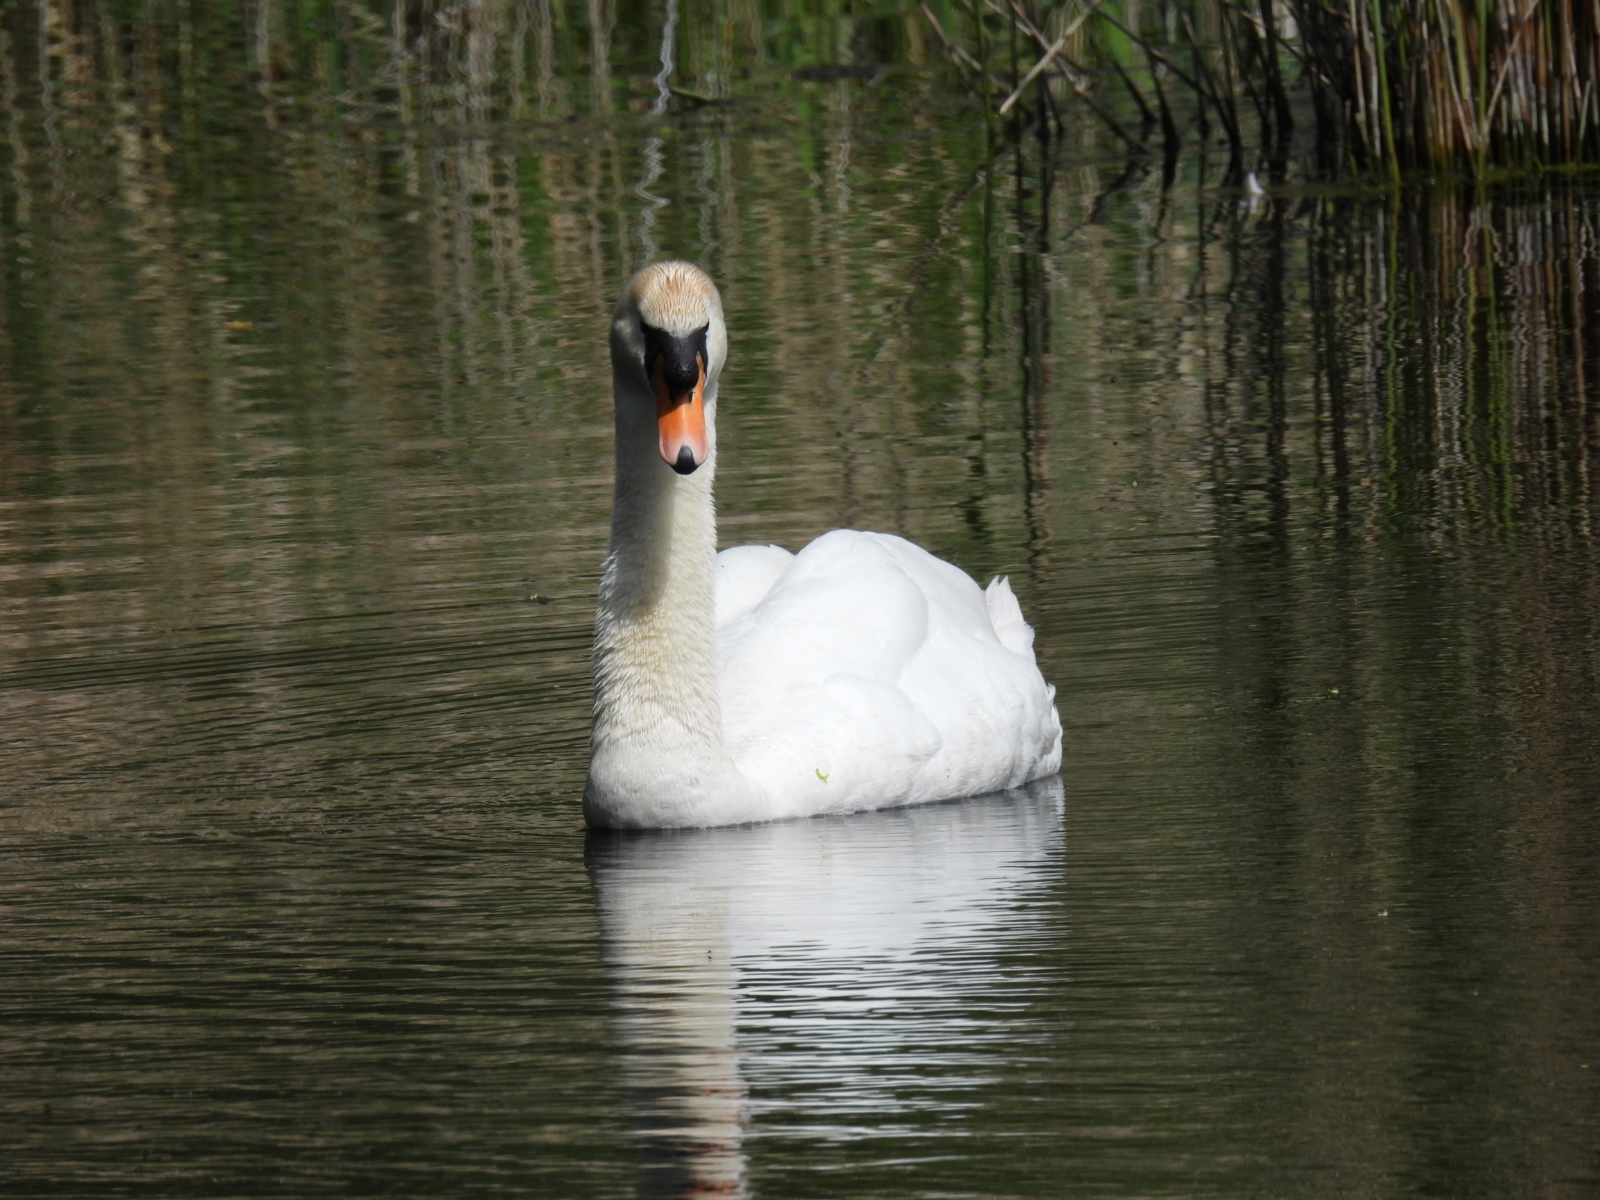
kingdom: Animalia
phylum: Chordata
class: Aves
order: Anseriformes
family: Anatidae
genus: Cygnus
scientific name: Cygnus olor
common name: Mute swan
